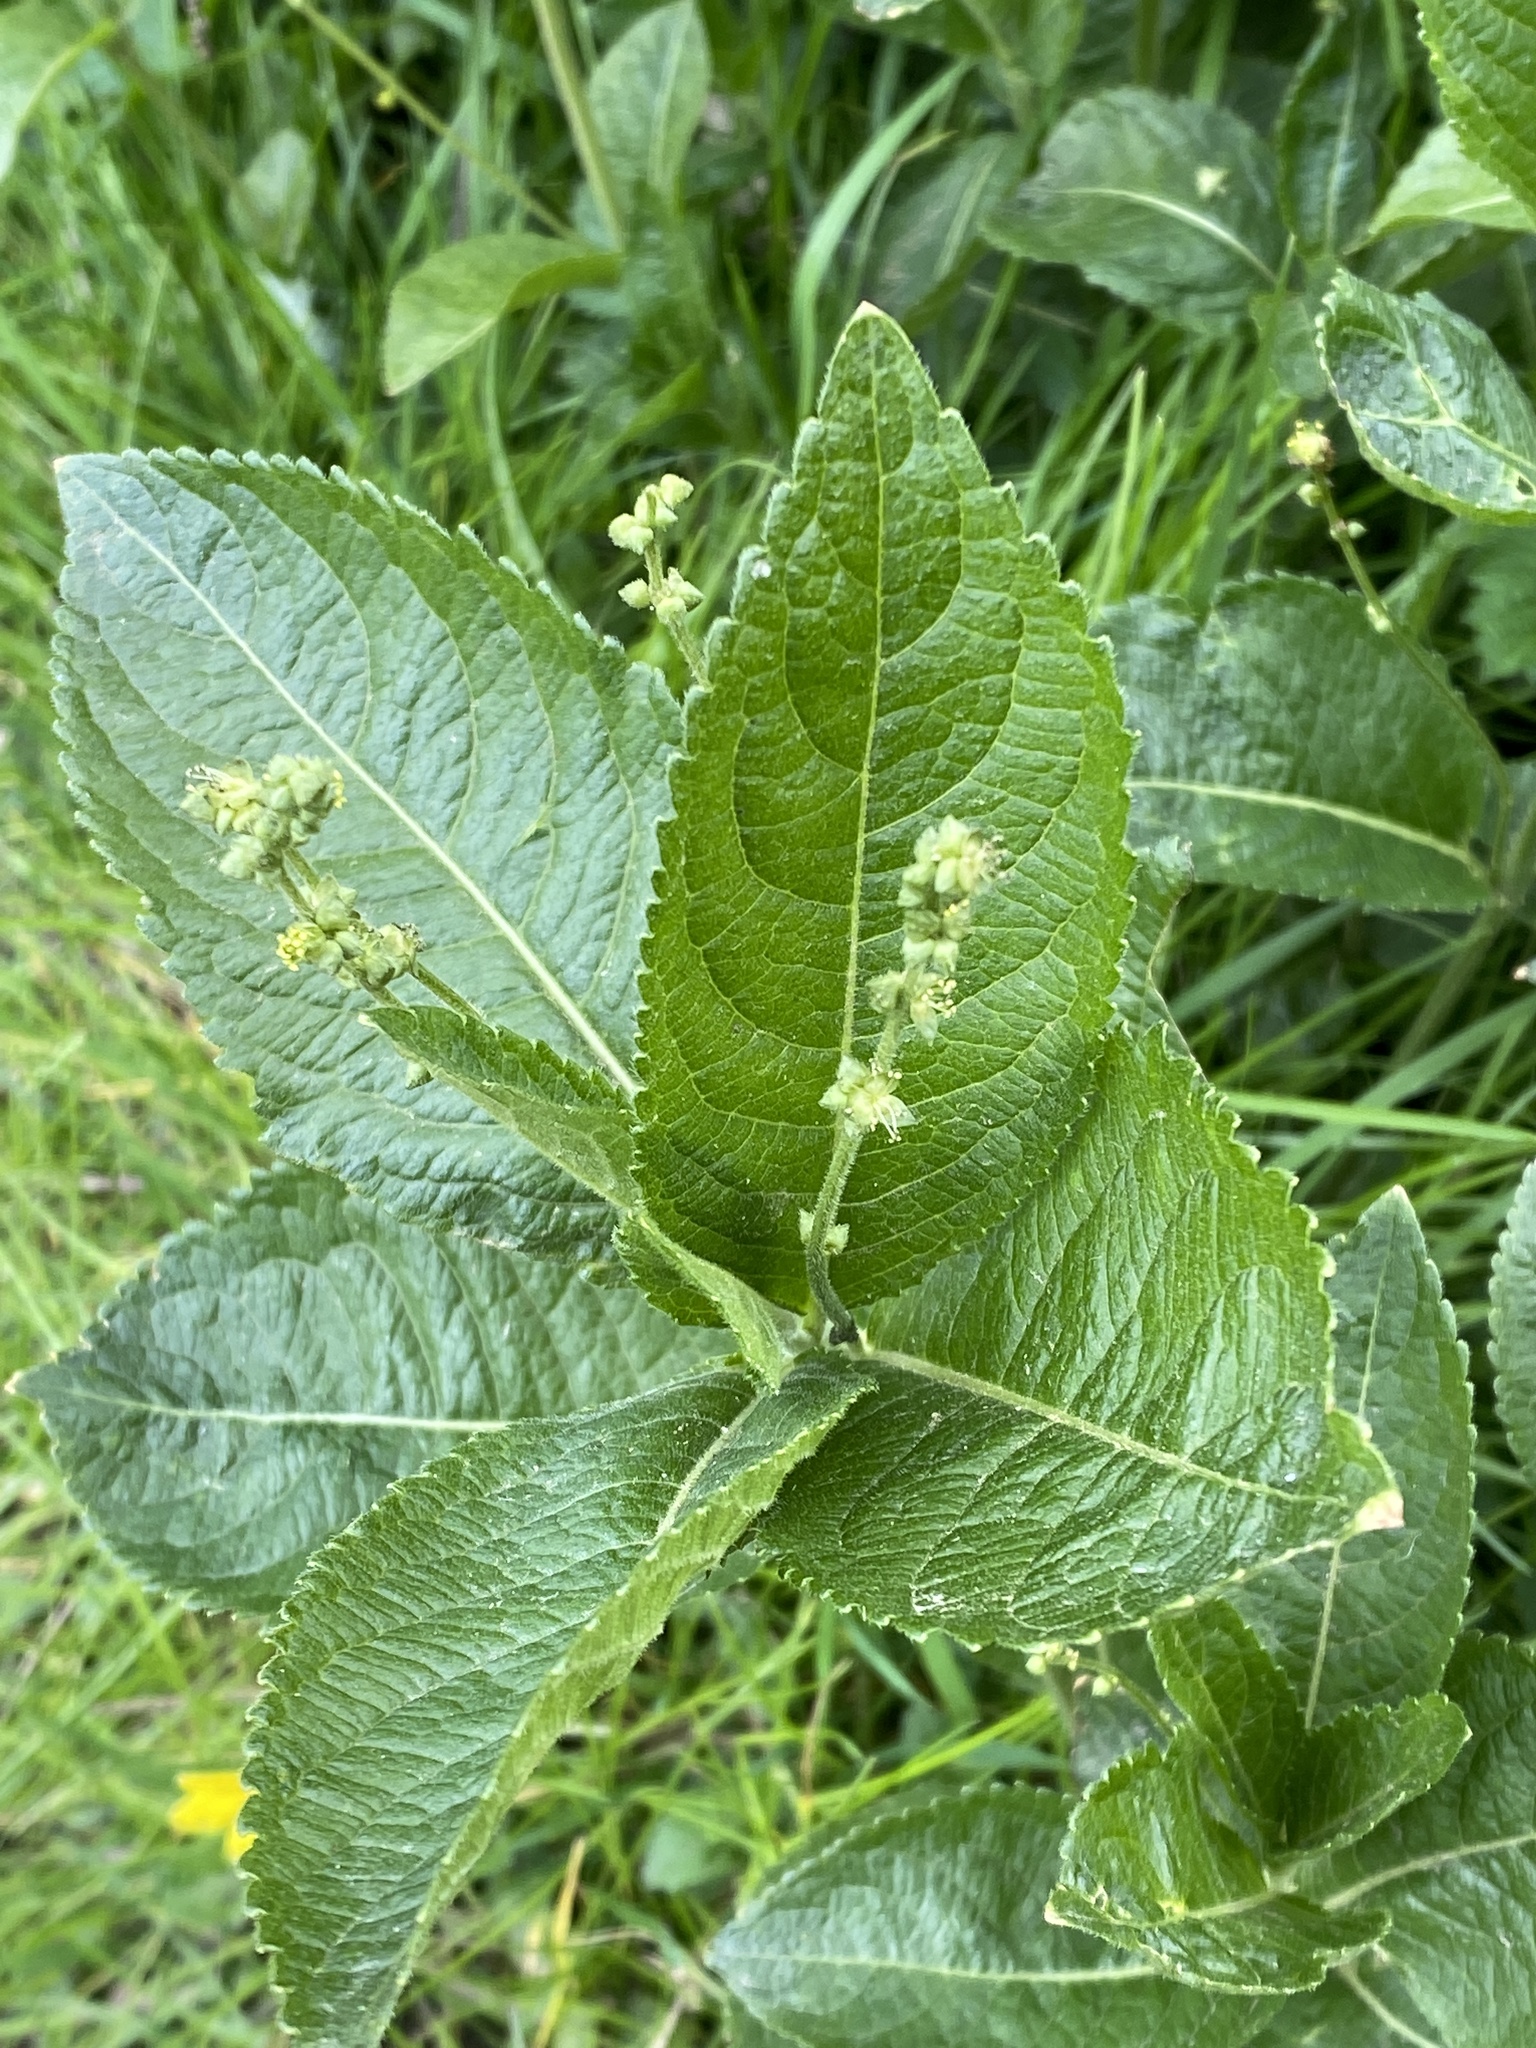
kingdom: Plantae
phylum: Tracheophyta
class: Magnoliopsida
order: Malpighiales
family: Euphorbiaceae
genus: Mercurialis
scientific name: Mercurialis perennis
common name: Dog mercury
